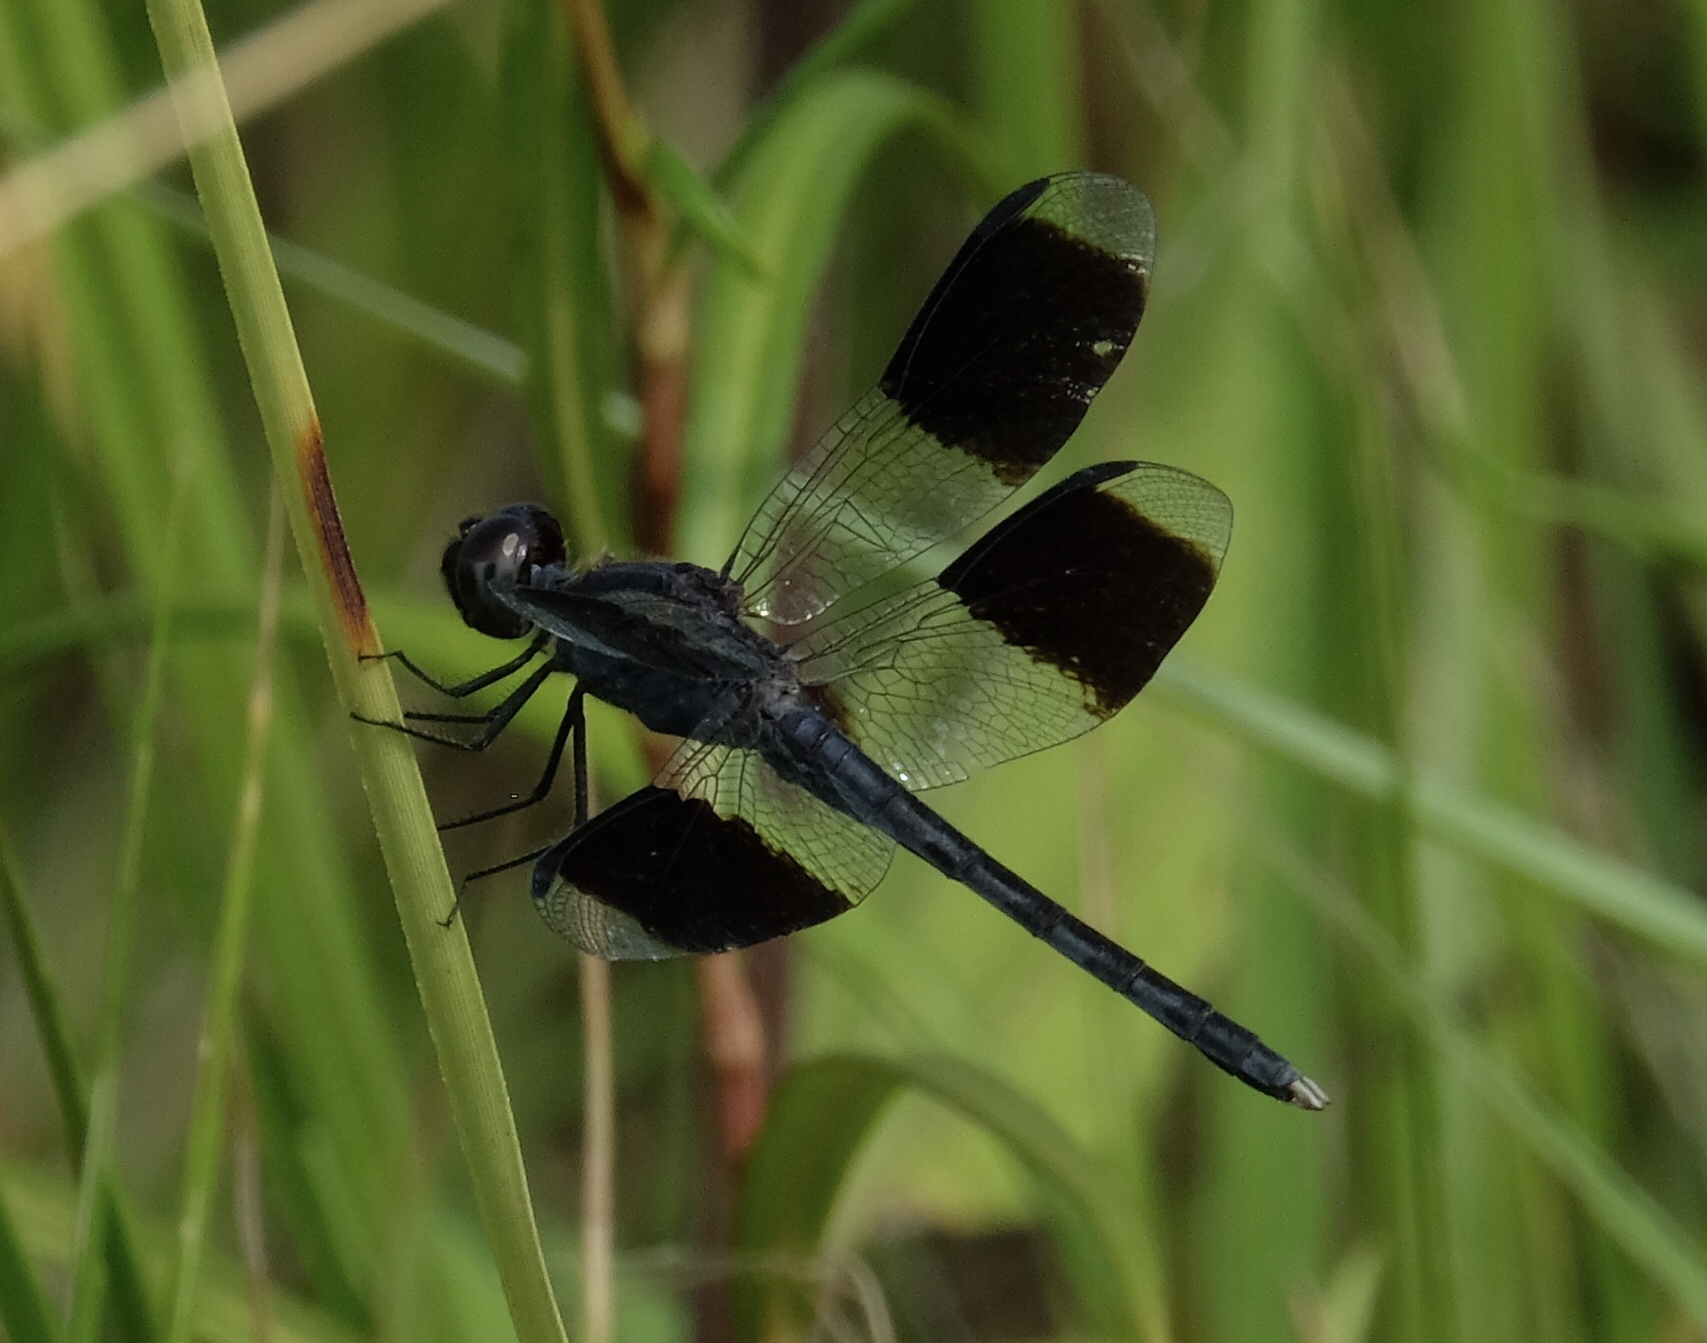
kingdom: Animalia
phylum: Arthropoda
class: Insecta
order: Odonata
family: Libellulidae
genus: Erythrodiplax
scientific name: Erythrodiplax umbrata
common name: Band-winged dragonlet
